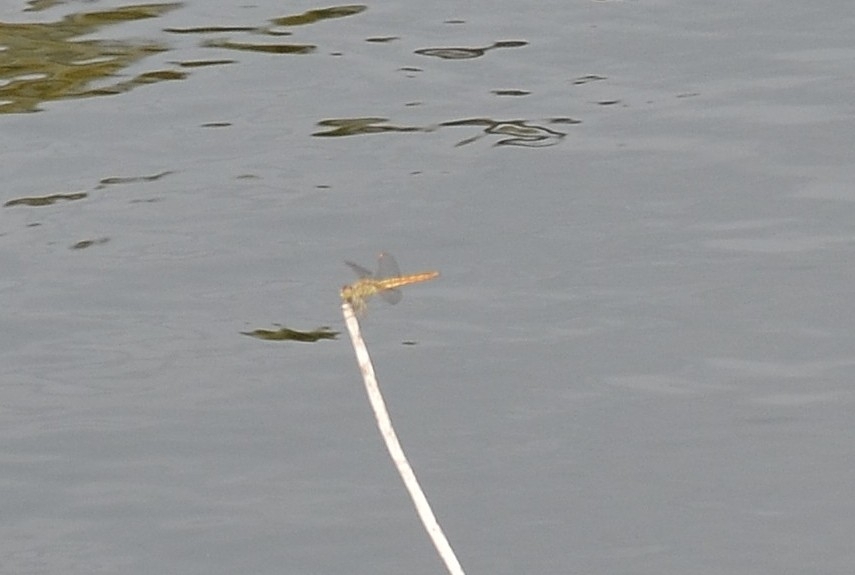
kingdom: Animalia
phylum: Arthropoda
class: Insecta
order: Odonata
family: Libellulidae
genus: Brachythemis
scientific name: Brachythemis contaminata
